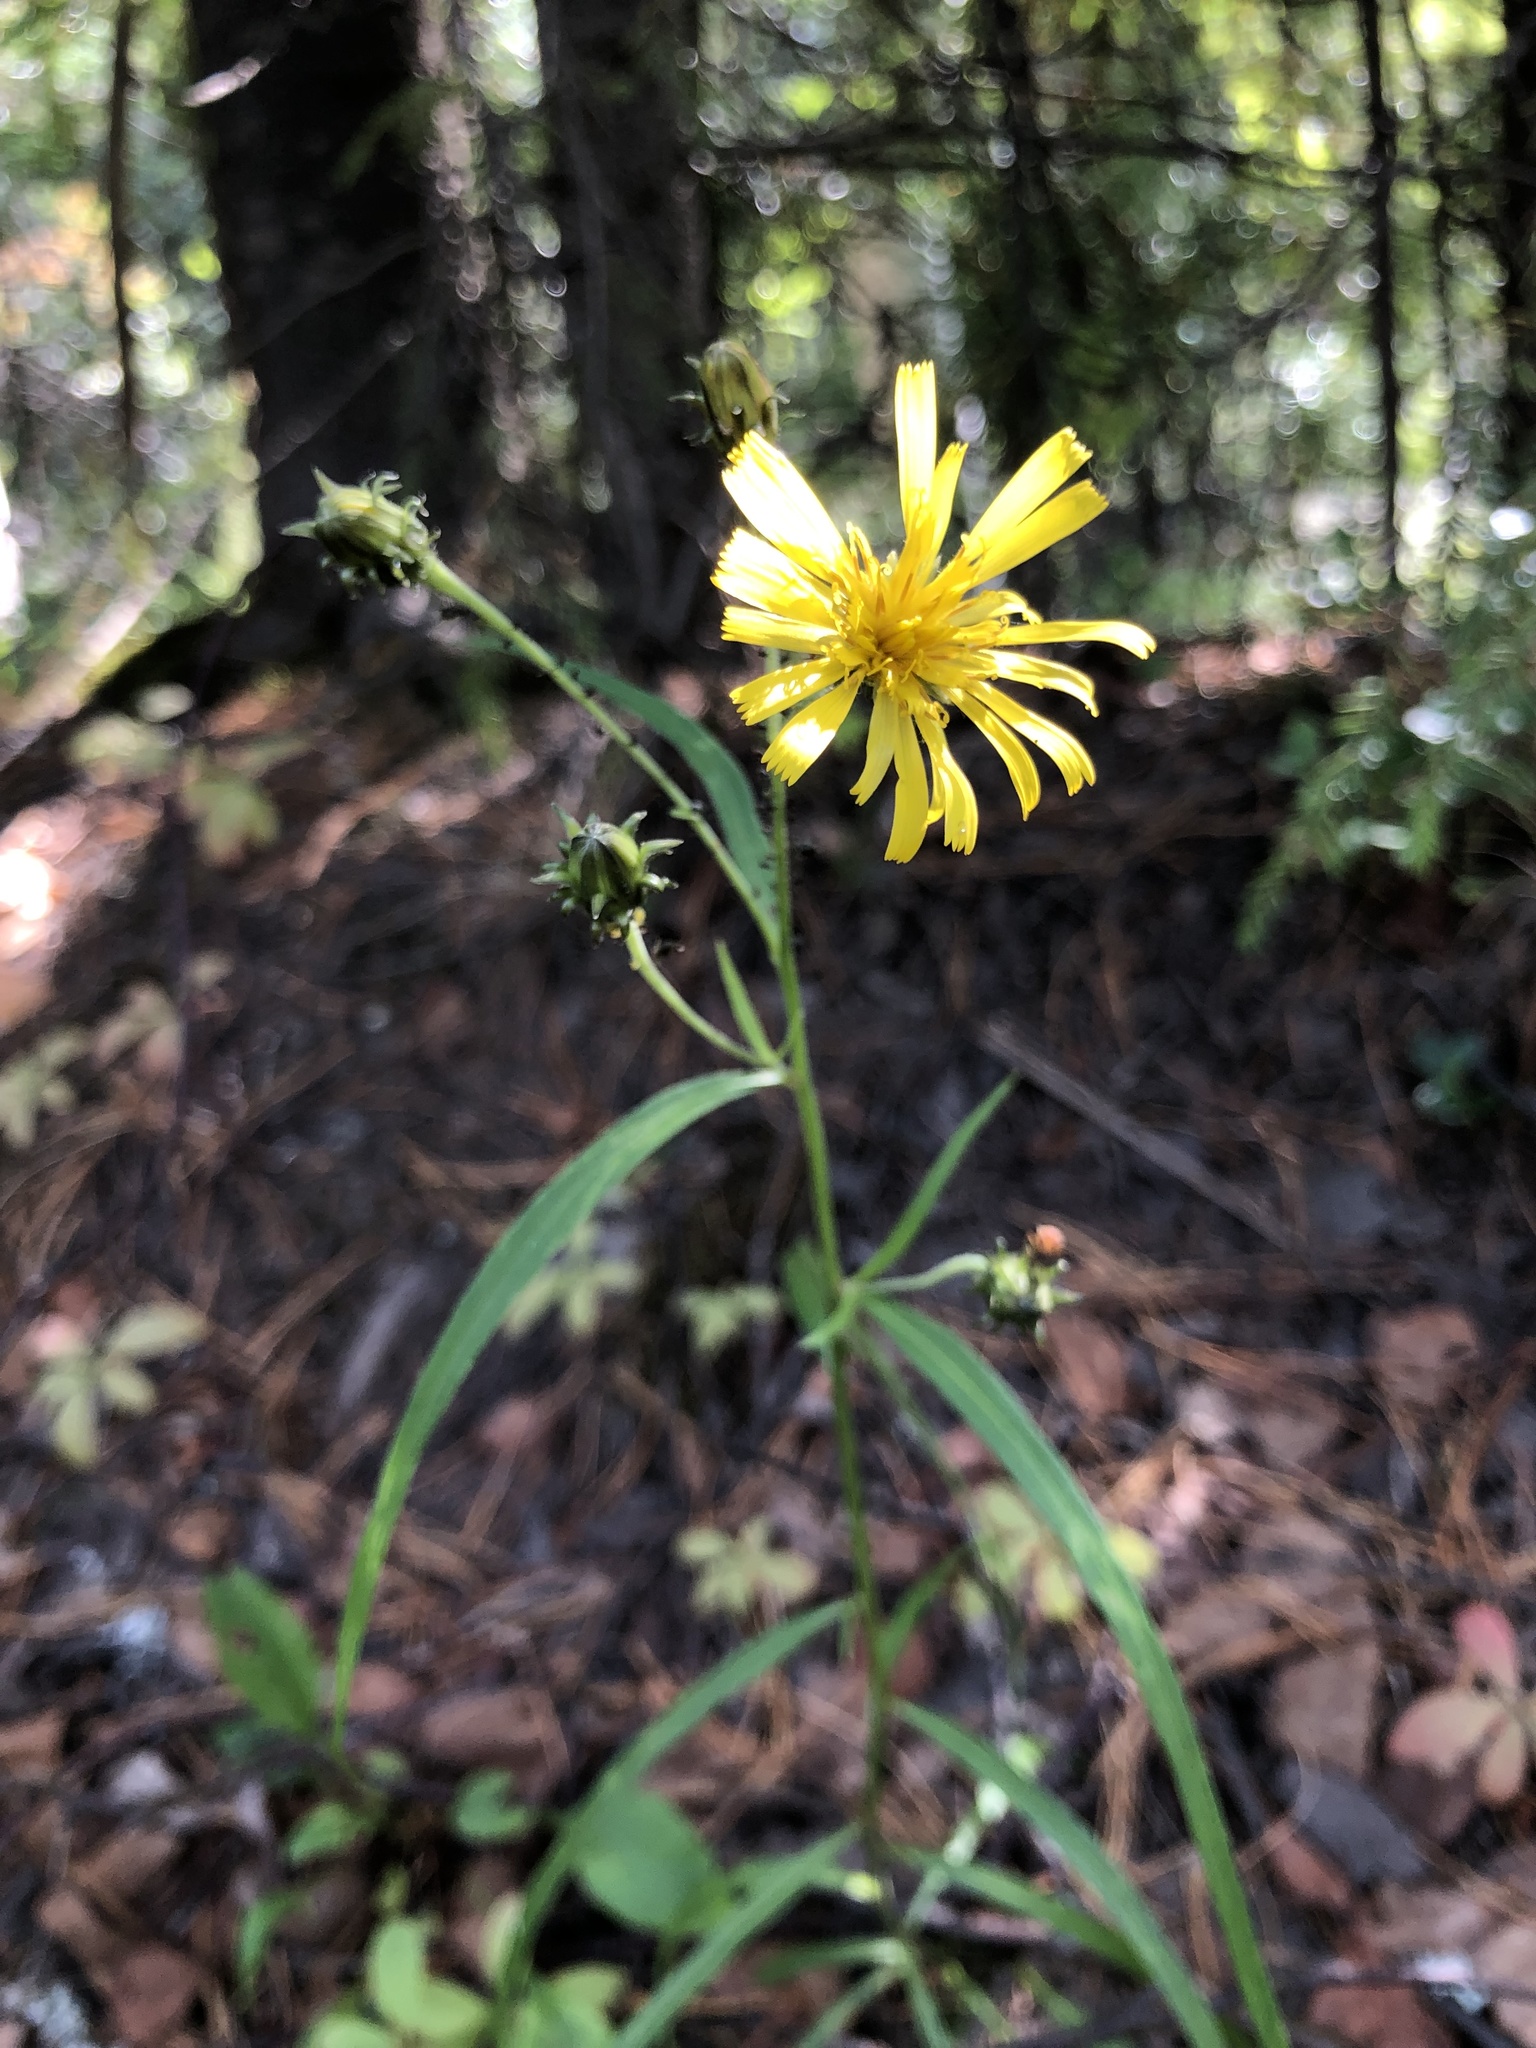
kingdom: Plantae
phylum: Tracheophyta
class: Magnoliopsida
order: Asterales
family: Asteraceae
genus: Hieracium
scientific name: Hieracium umbellatum
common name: Northern hawkweed
